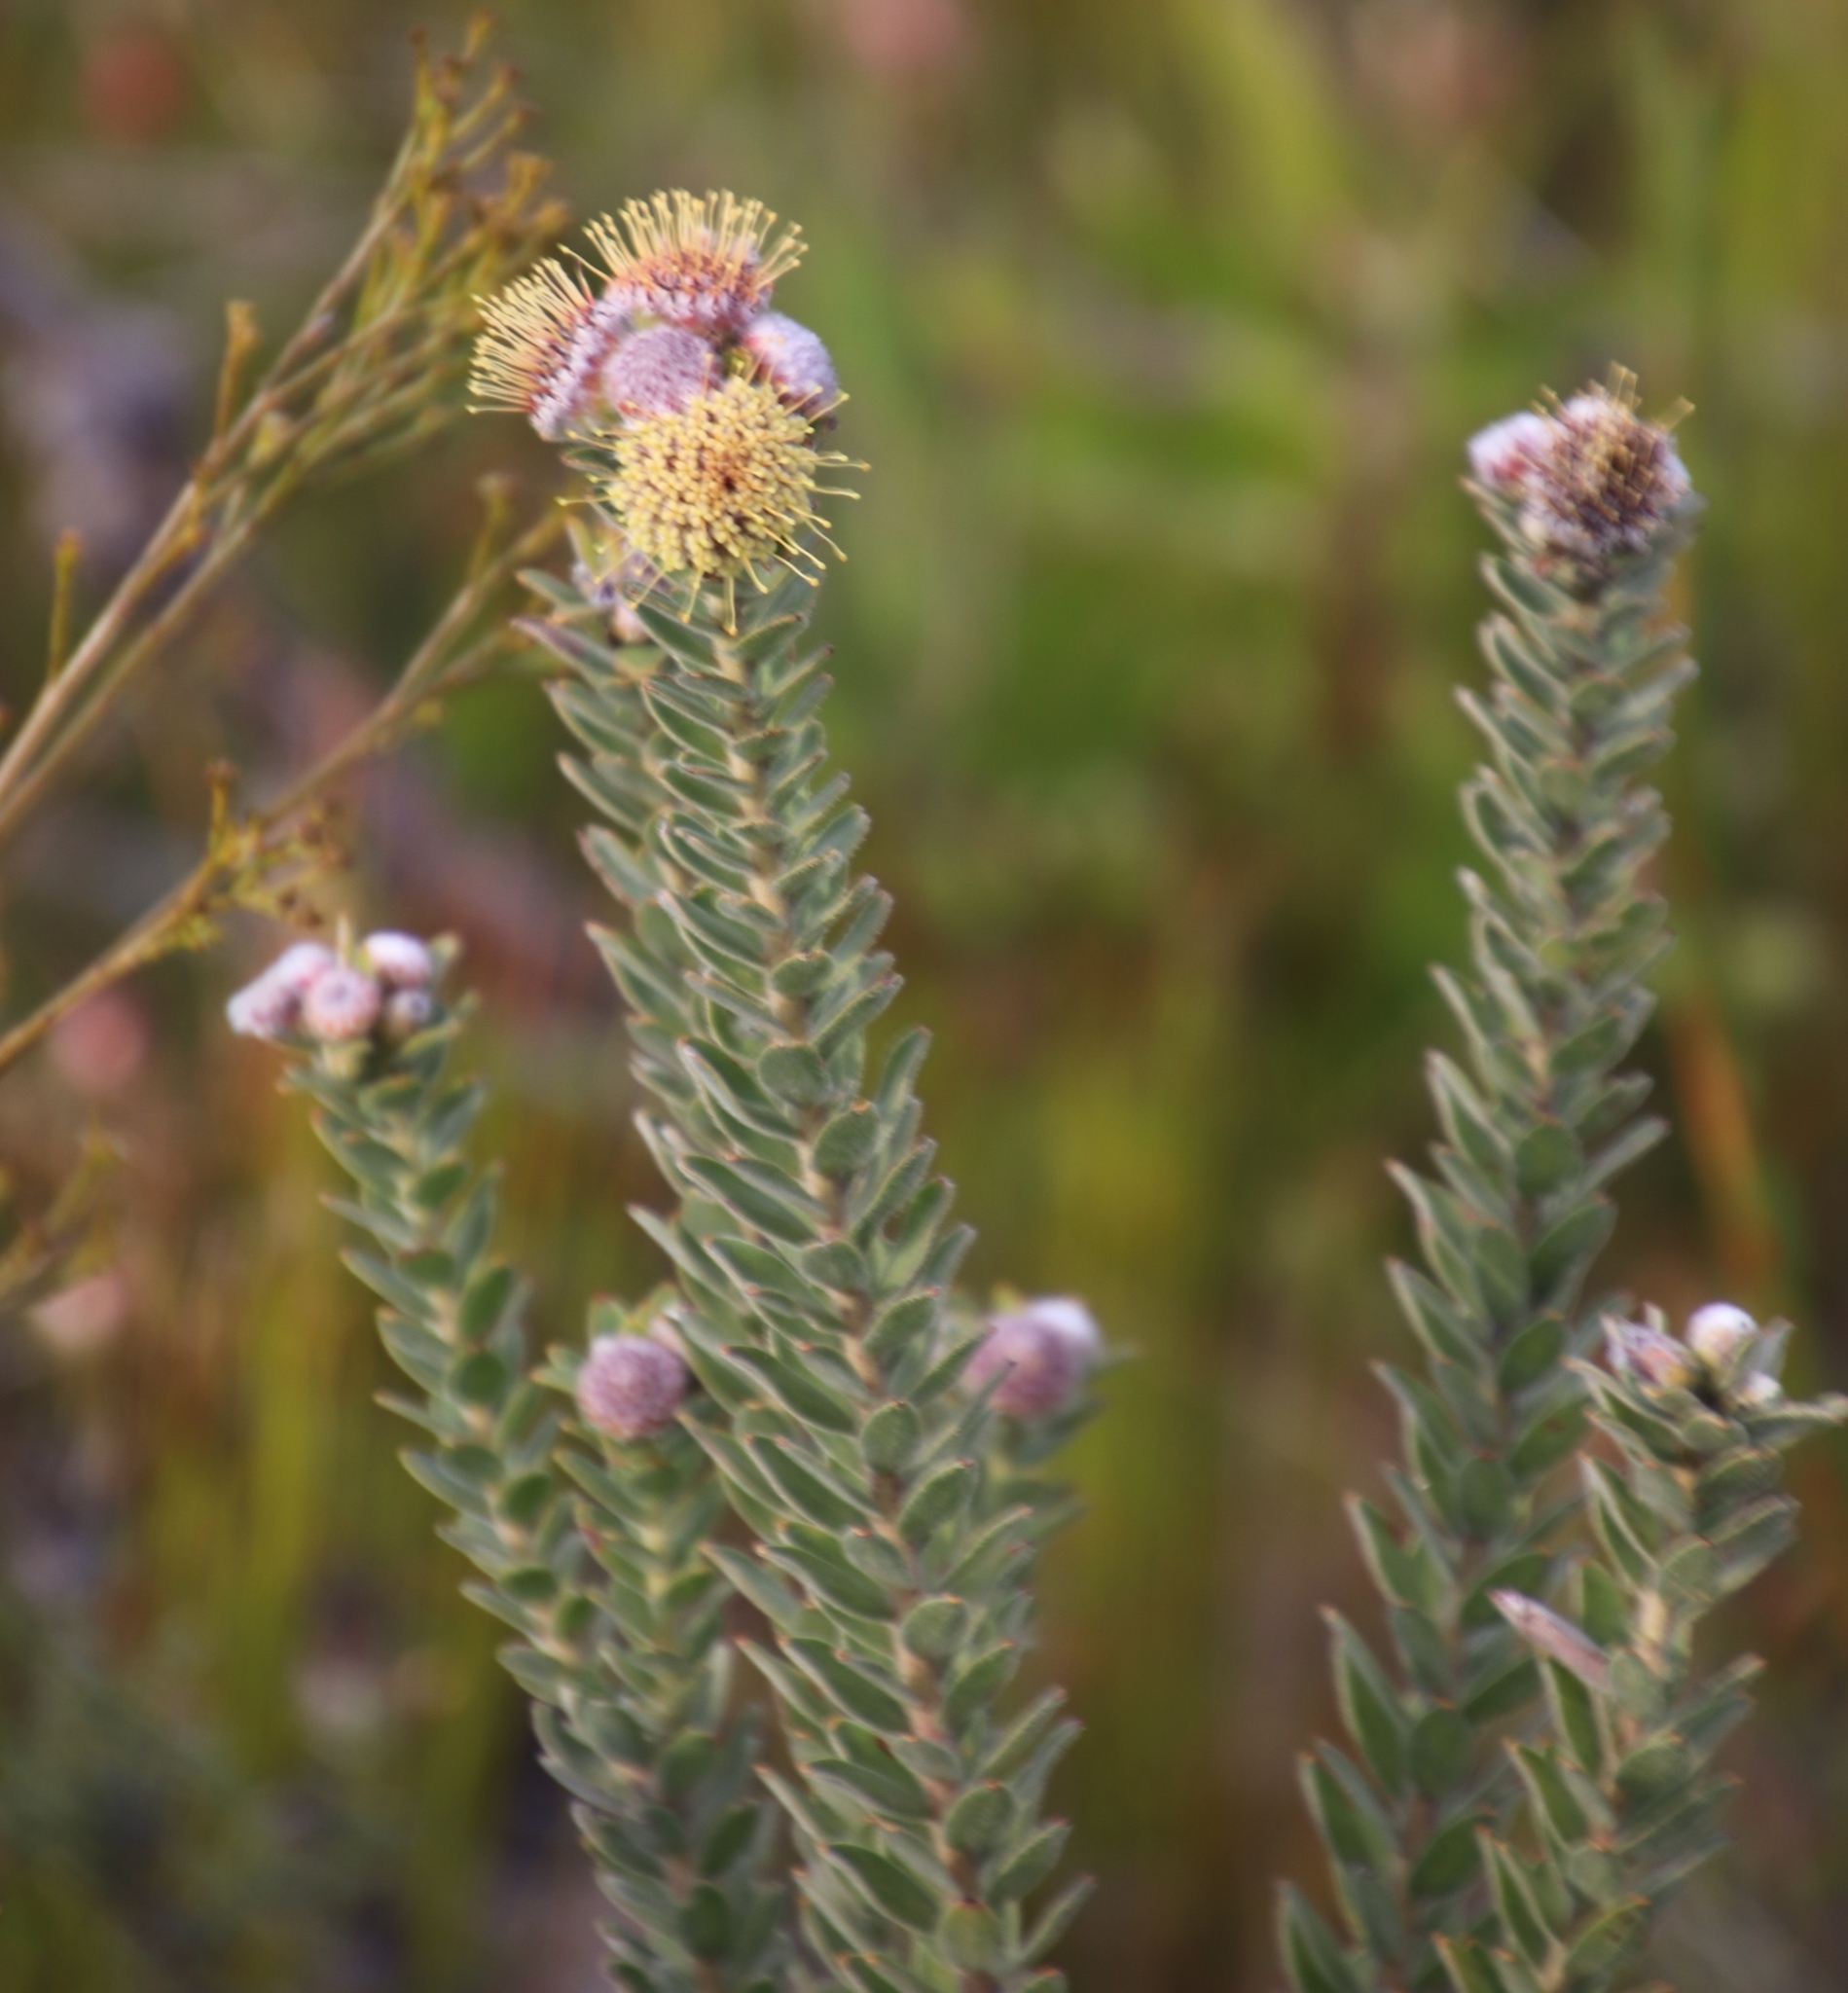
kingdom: Plantae
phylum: Tracheophyta
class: Magnoliopsida
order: Proteales
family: Proteaceae
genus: Leucospermum
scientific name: Leucospermum truncatulum
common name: Oval-leaf pincushion
